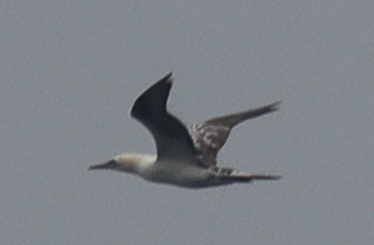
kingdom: Animalia
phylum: Chordata
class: Aves
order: Suliformes
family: Sulidae
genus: Morus
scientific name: Morus bassanus
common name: Northern gannet
